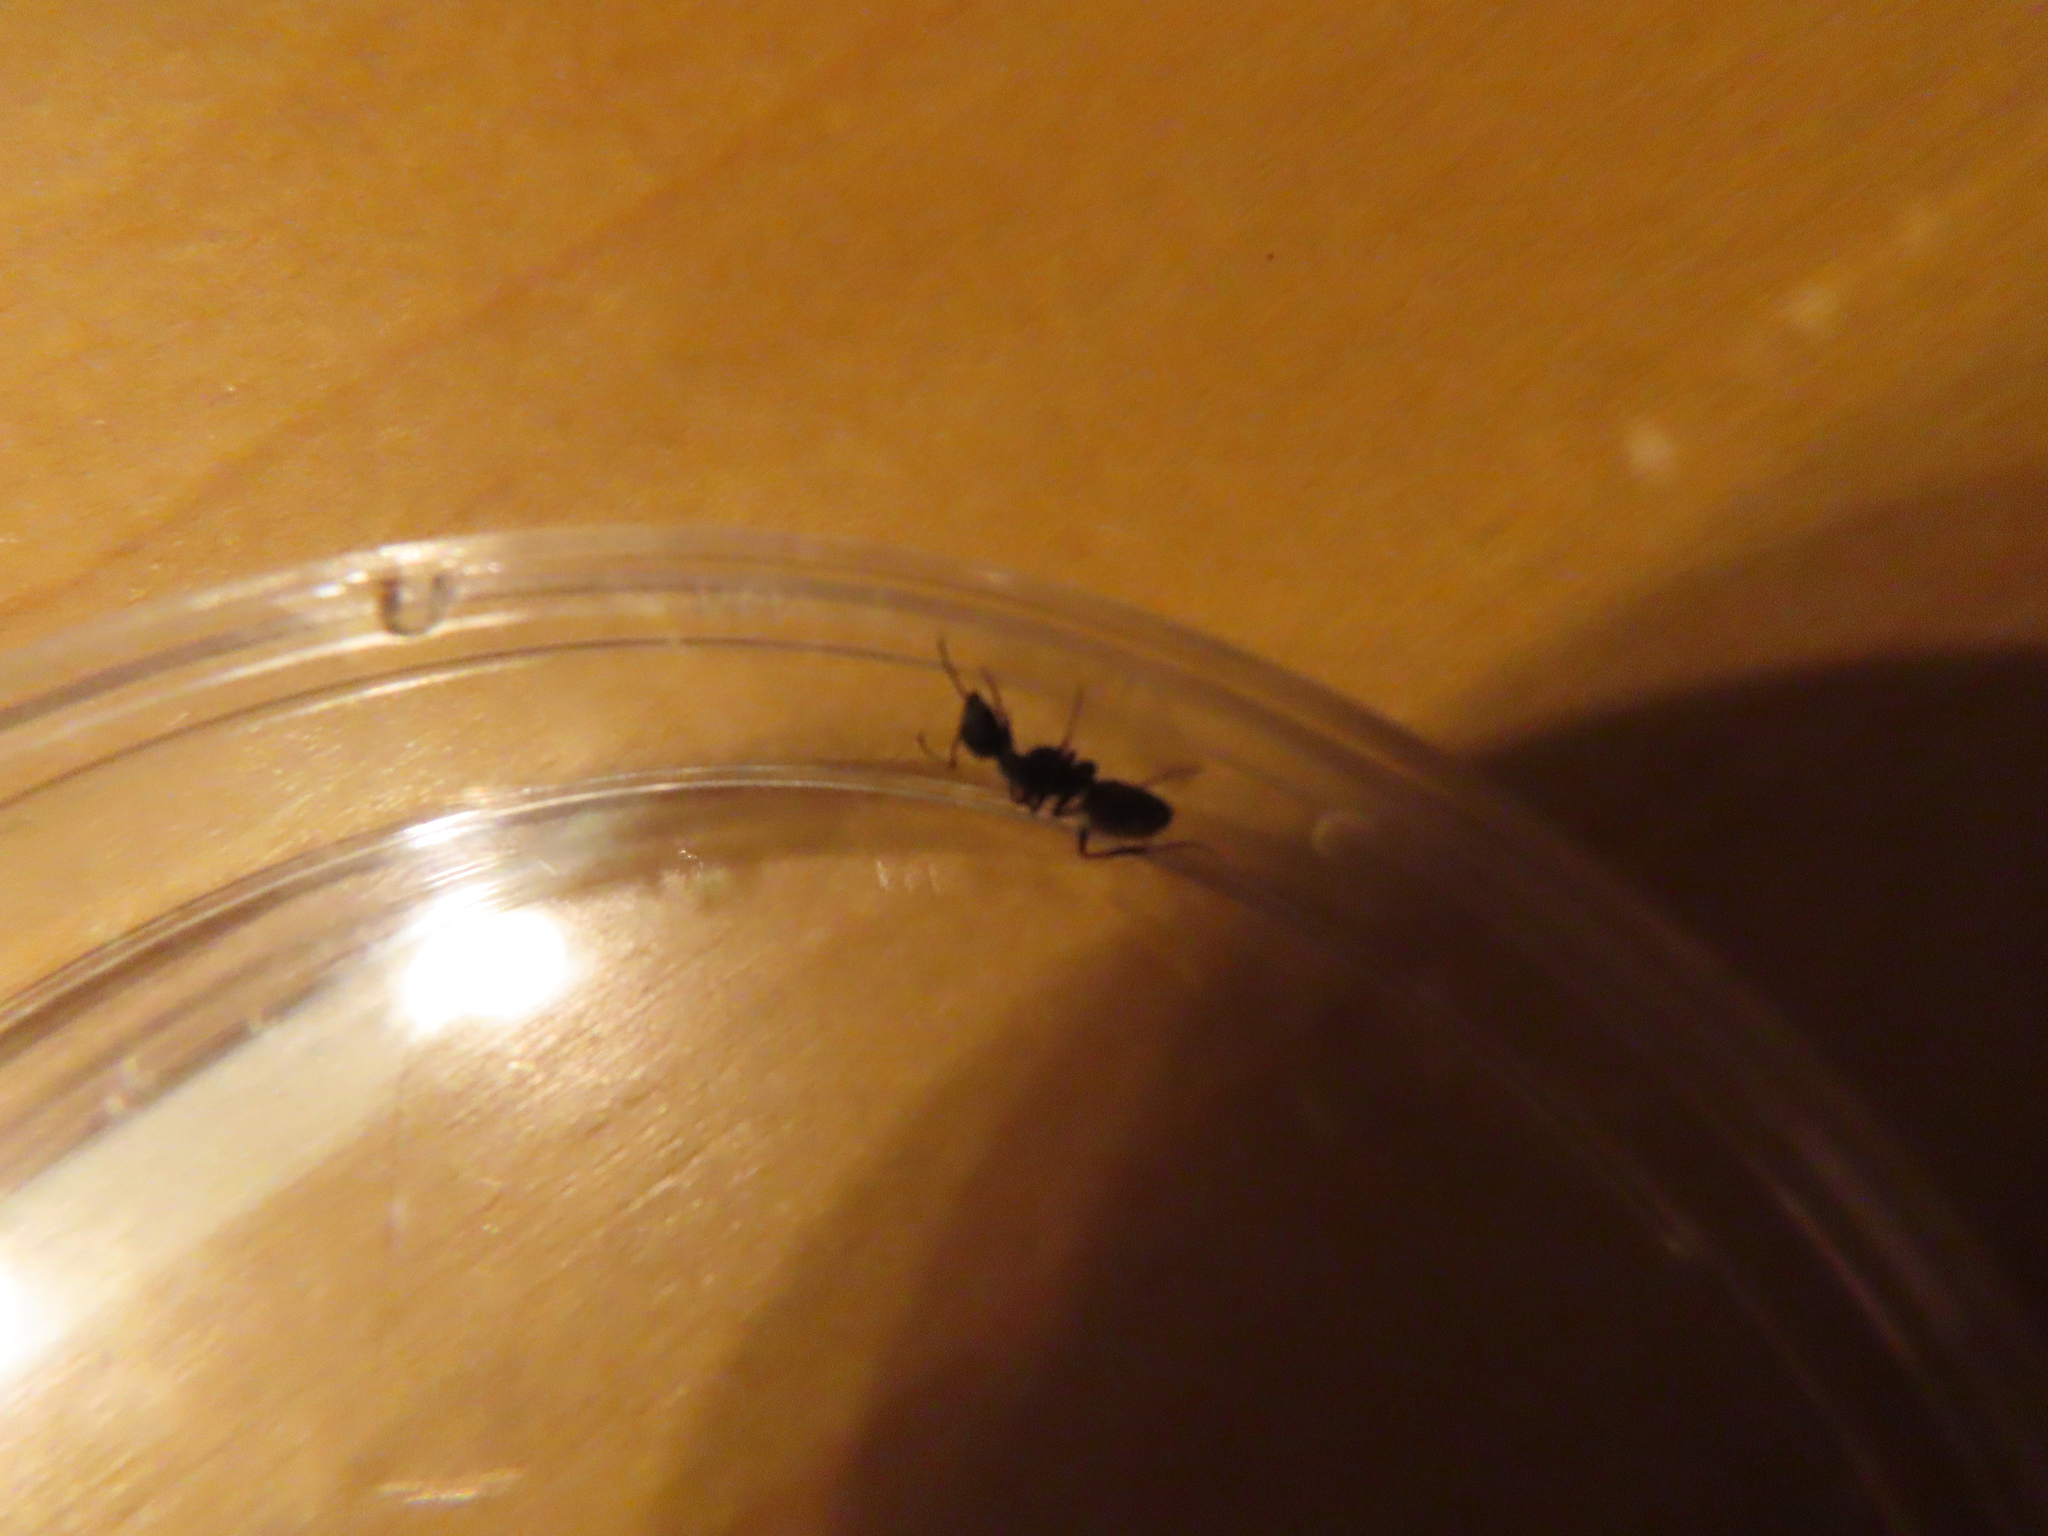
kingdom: Animalia
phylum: Arthropoda
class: Insecta
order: Hymenoptera
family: Formicidae
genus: Camponotus
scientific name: Camponotus pennsylvanicus
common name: Black carpenter ant
